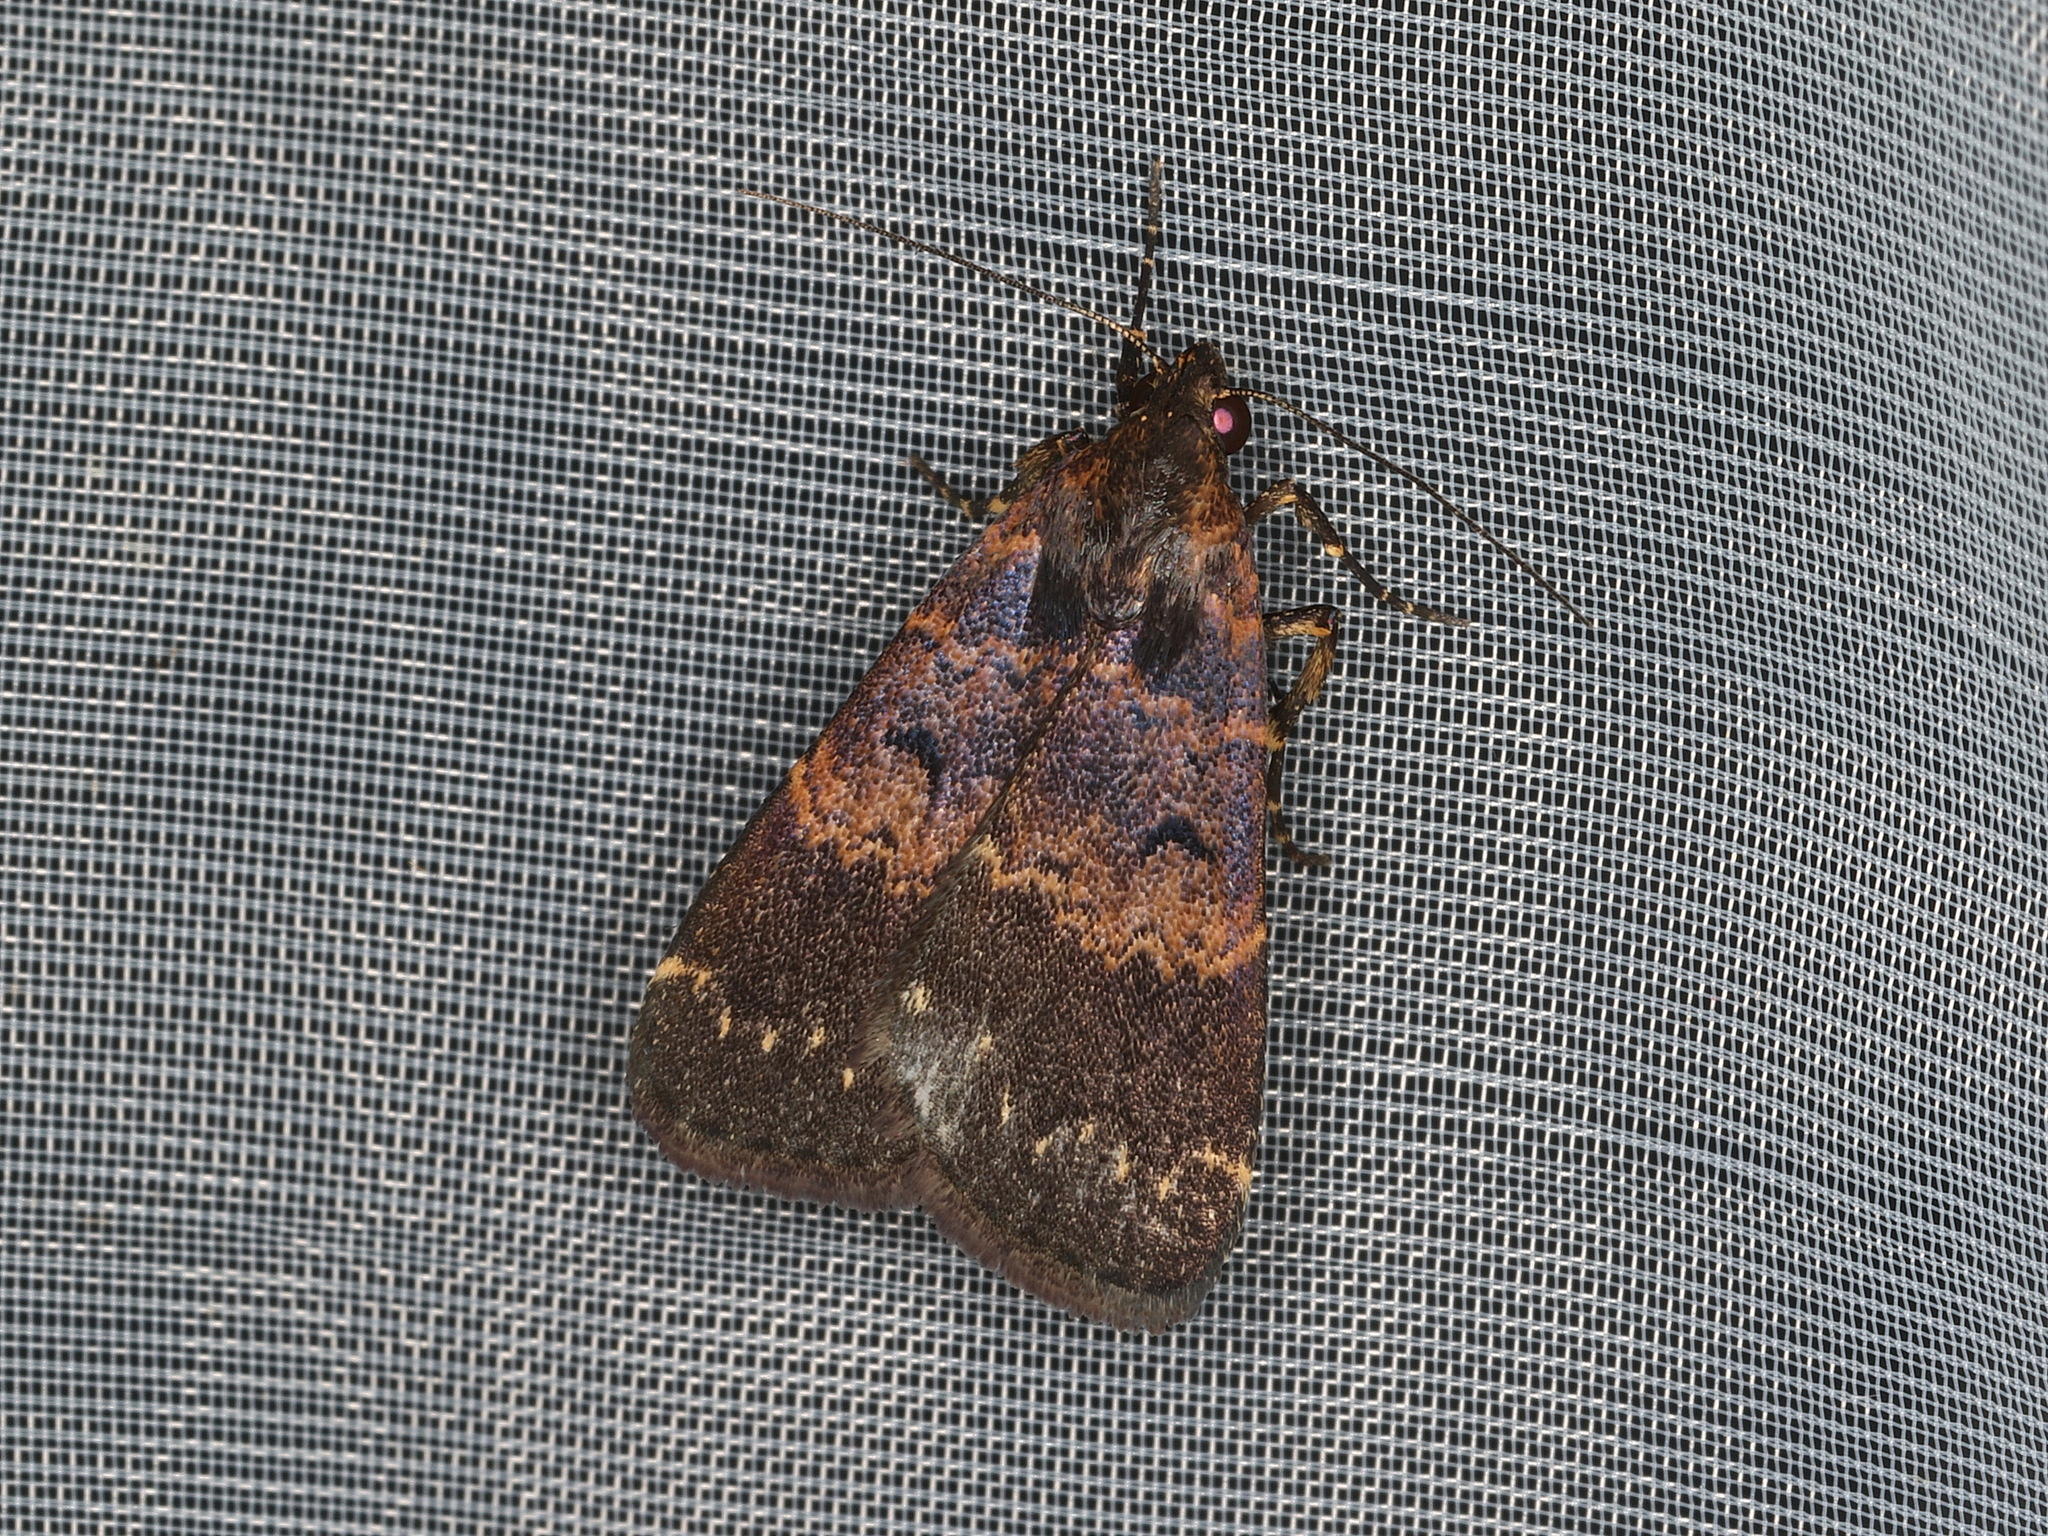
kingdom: Animalia
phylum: Arthropoda
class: Insecta
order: Lepidoptera
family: Erebidae
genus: Hydrillodes
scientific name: Hydrillodes funestalis
